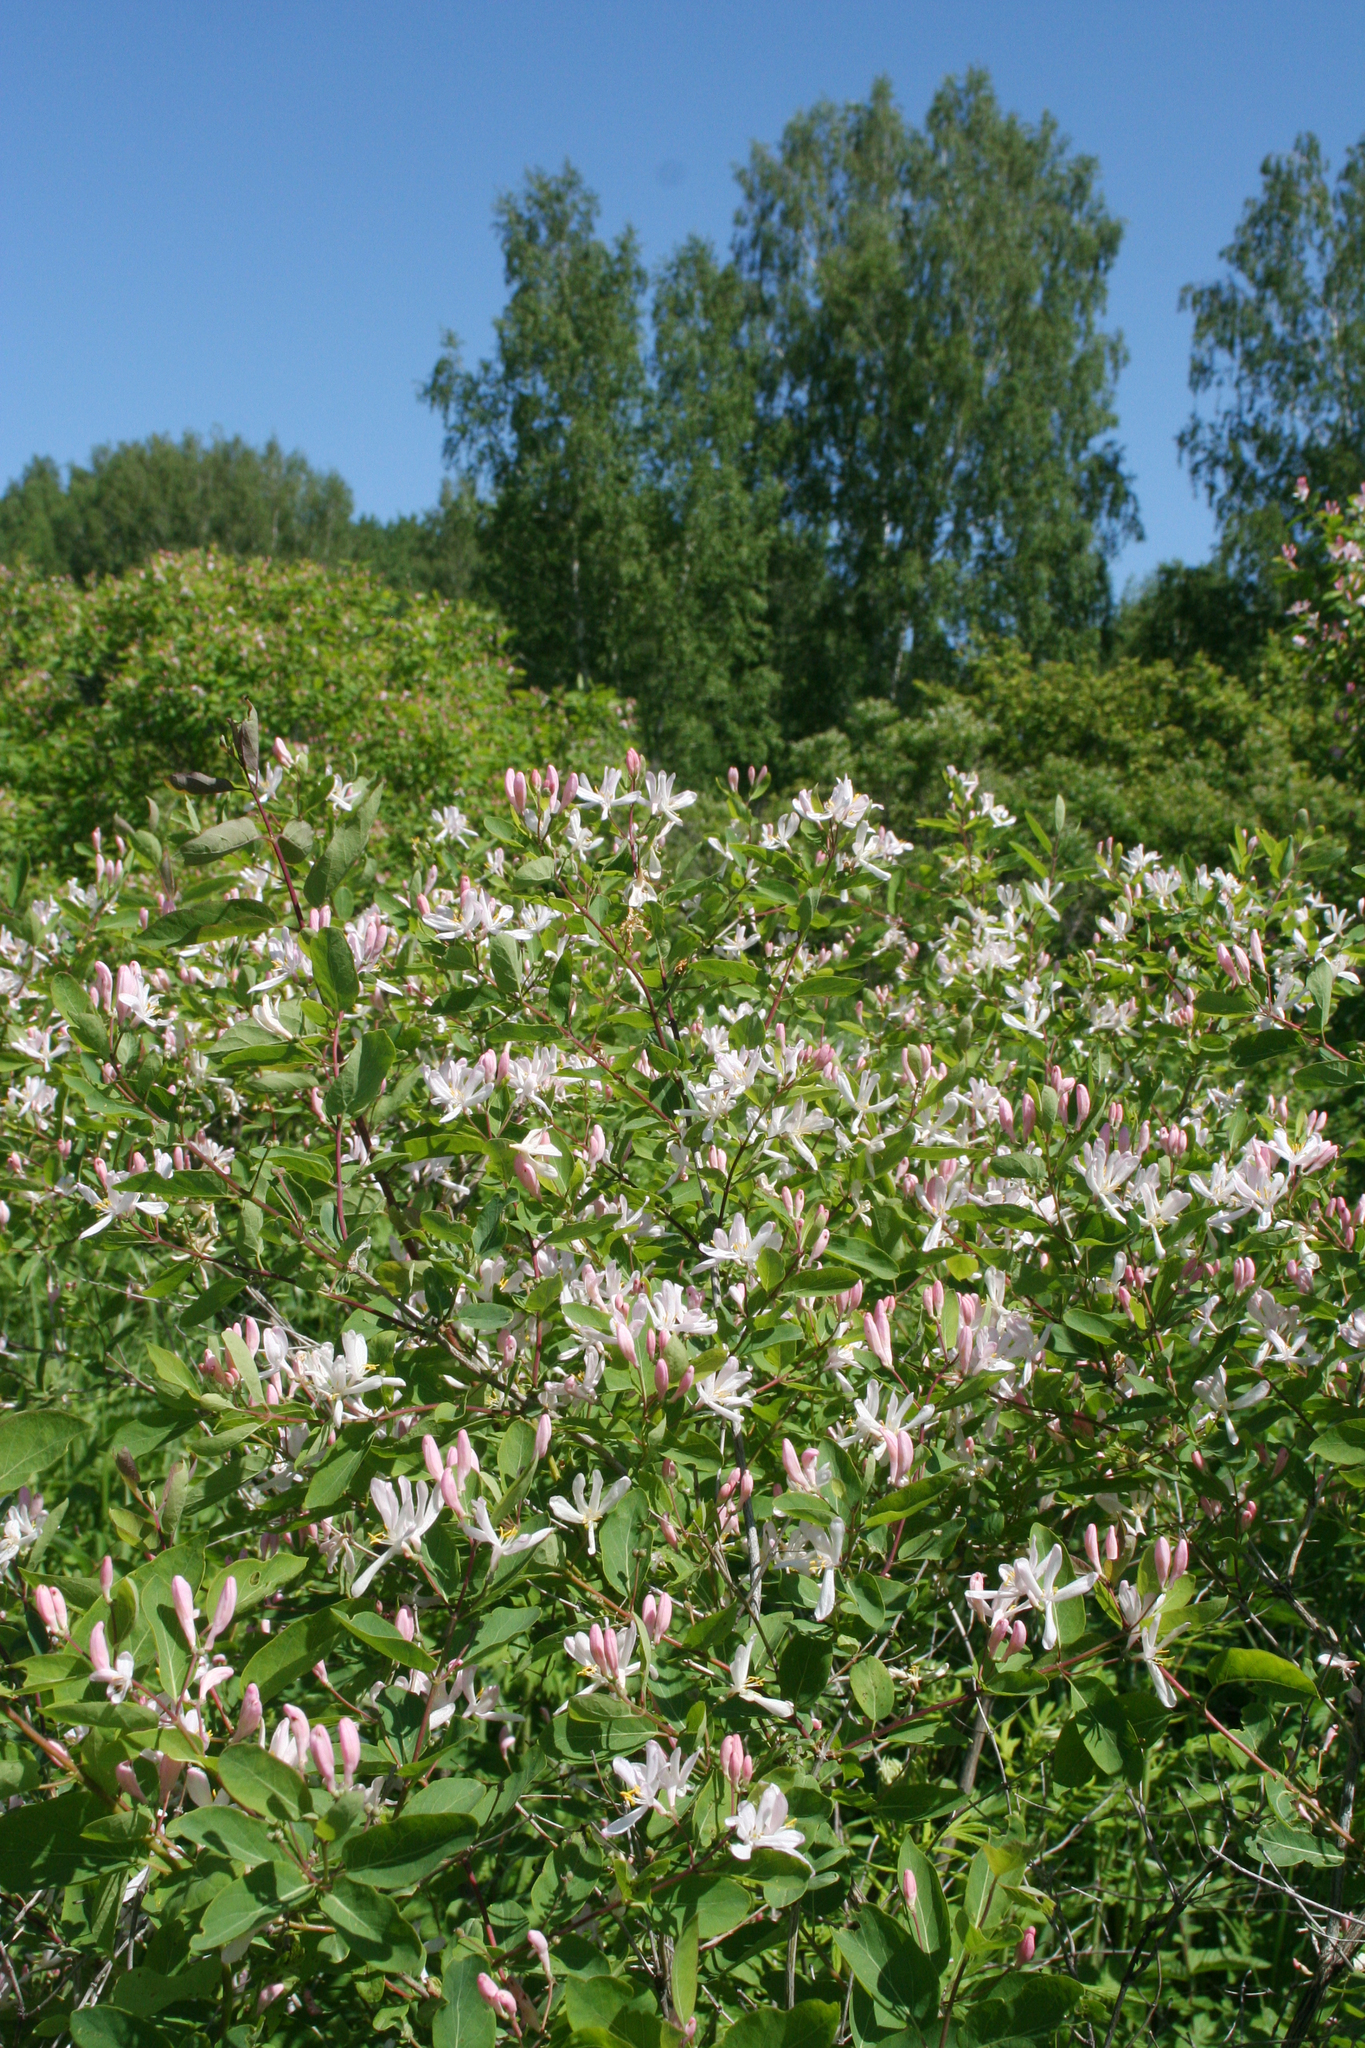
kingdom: Plantae
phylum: Tracheophyta
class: Magnoliopsida
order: Dipsacales
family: Caprifoliaceae
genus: Lonicera
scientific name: Lonicera tatarica
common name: Tatarian honeysuckle
